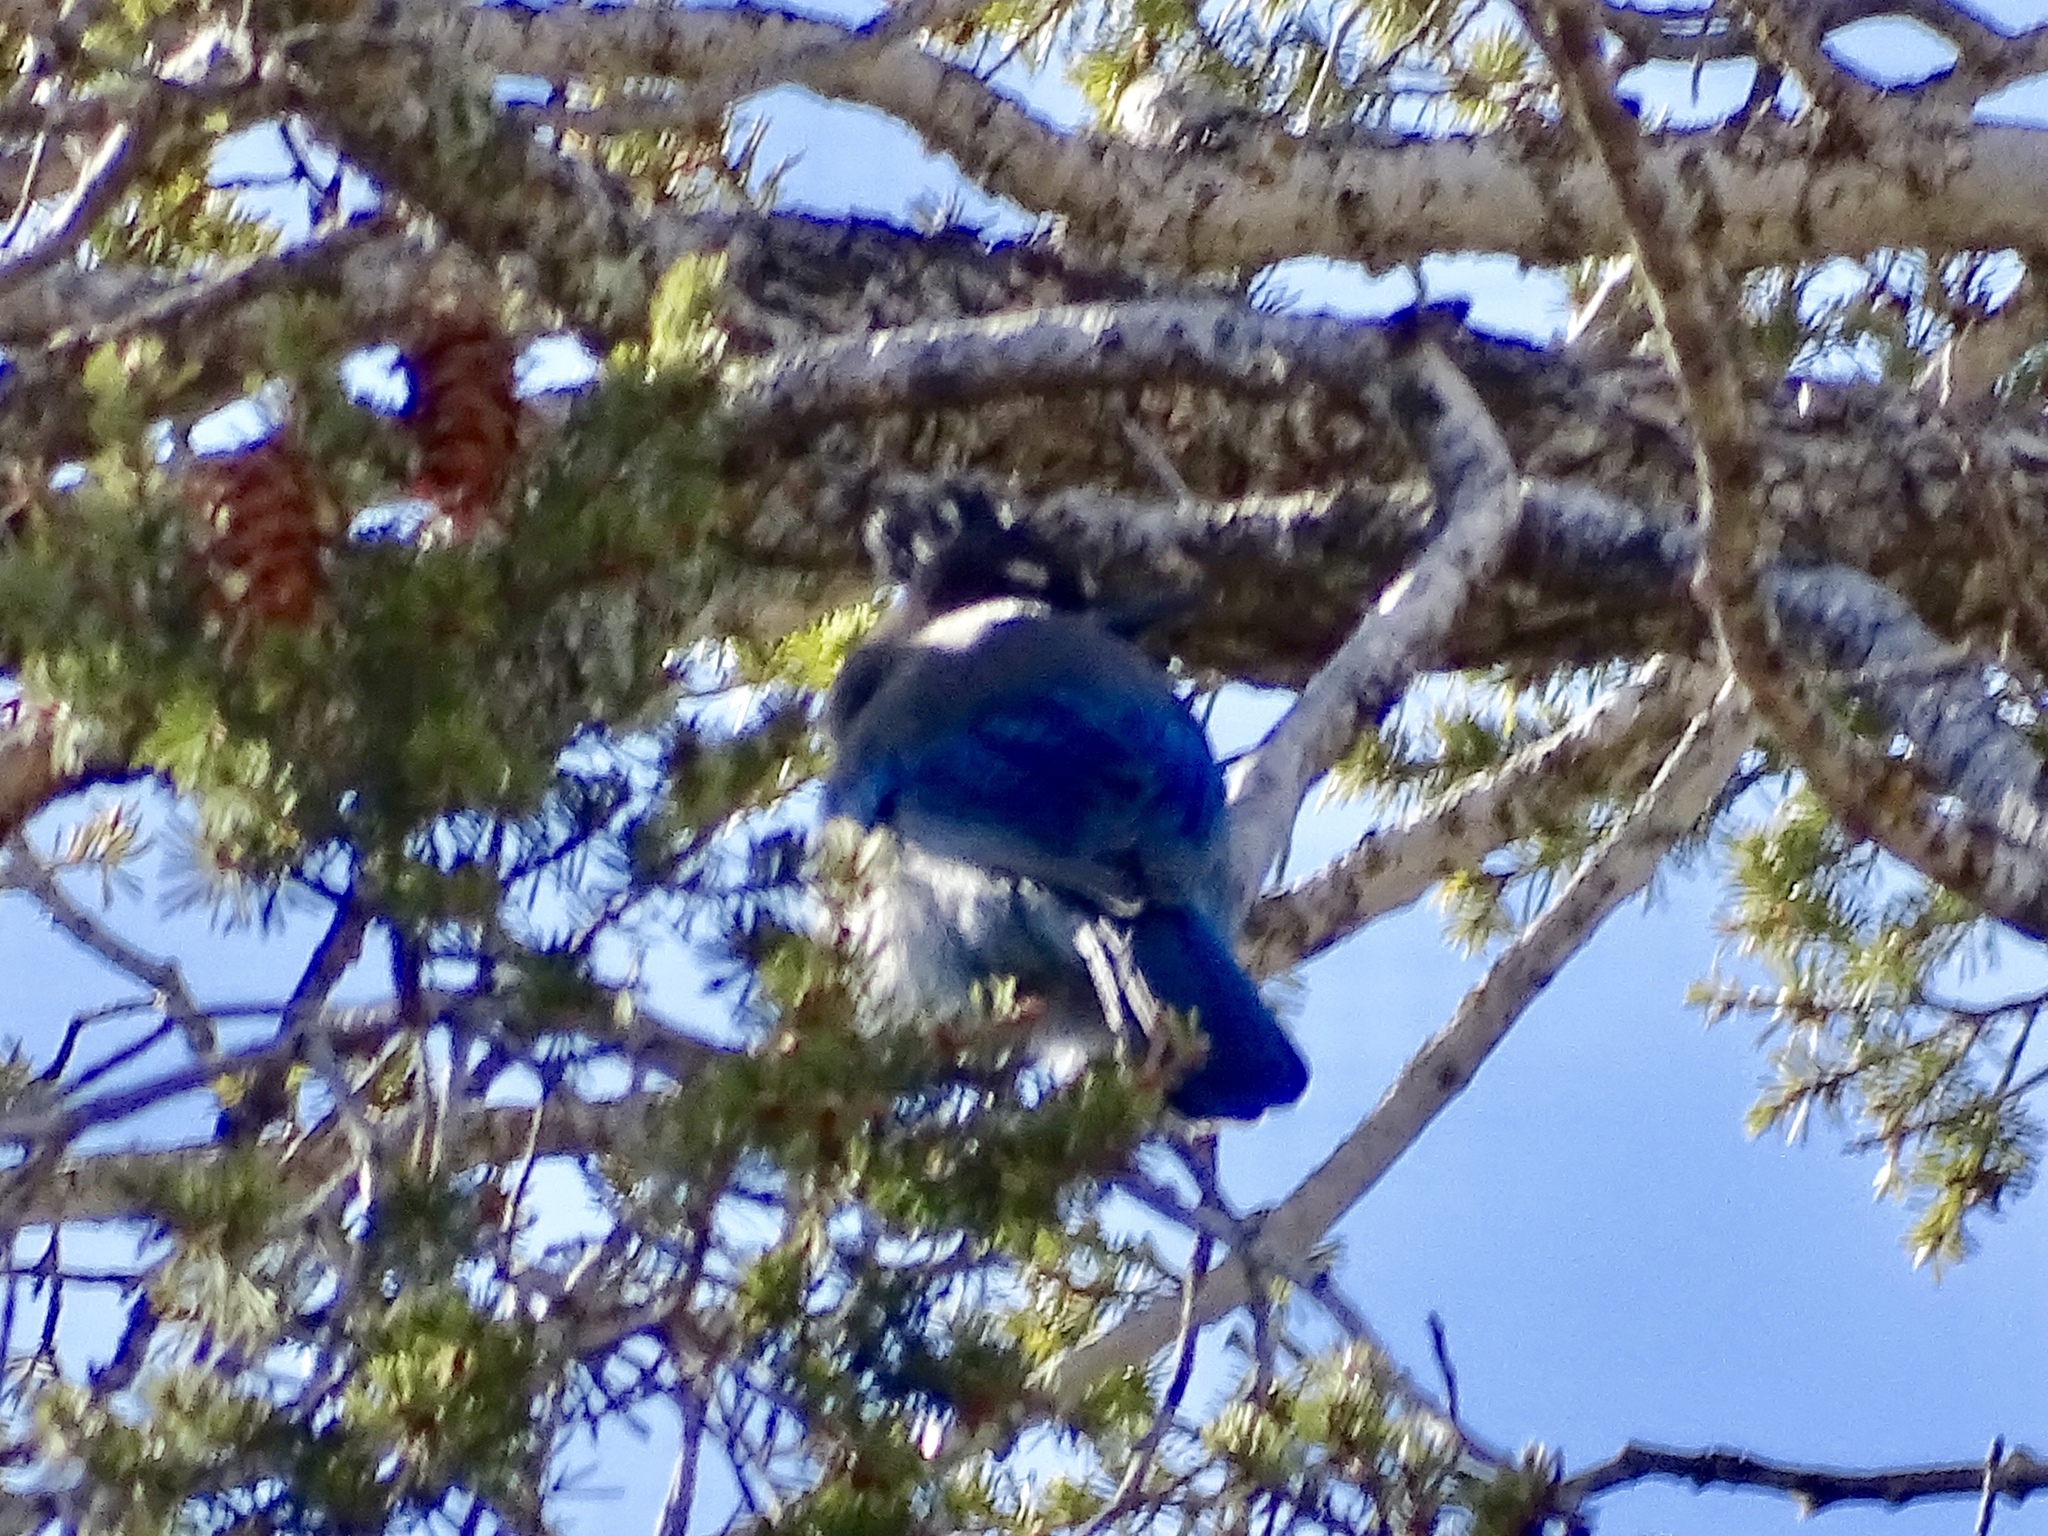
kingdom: Animalia
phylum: Chordata
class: Aves
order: Passeriformes
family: Corvidae
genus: Cyanocitta
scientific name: Cyanocitta stelleri
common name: Steller's jay
